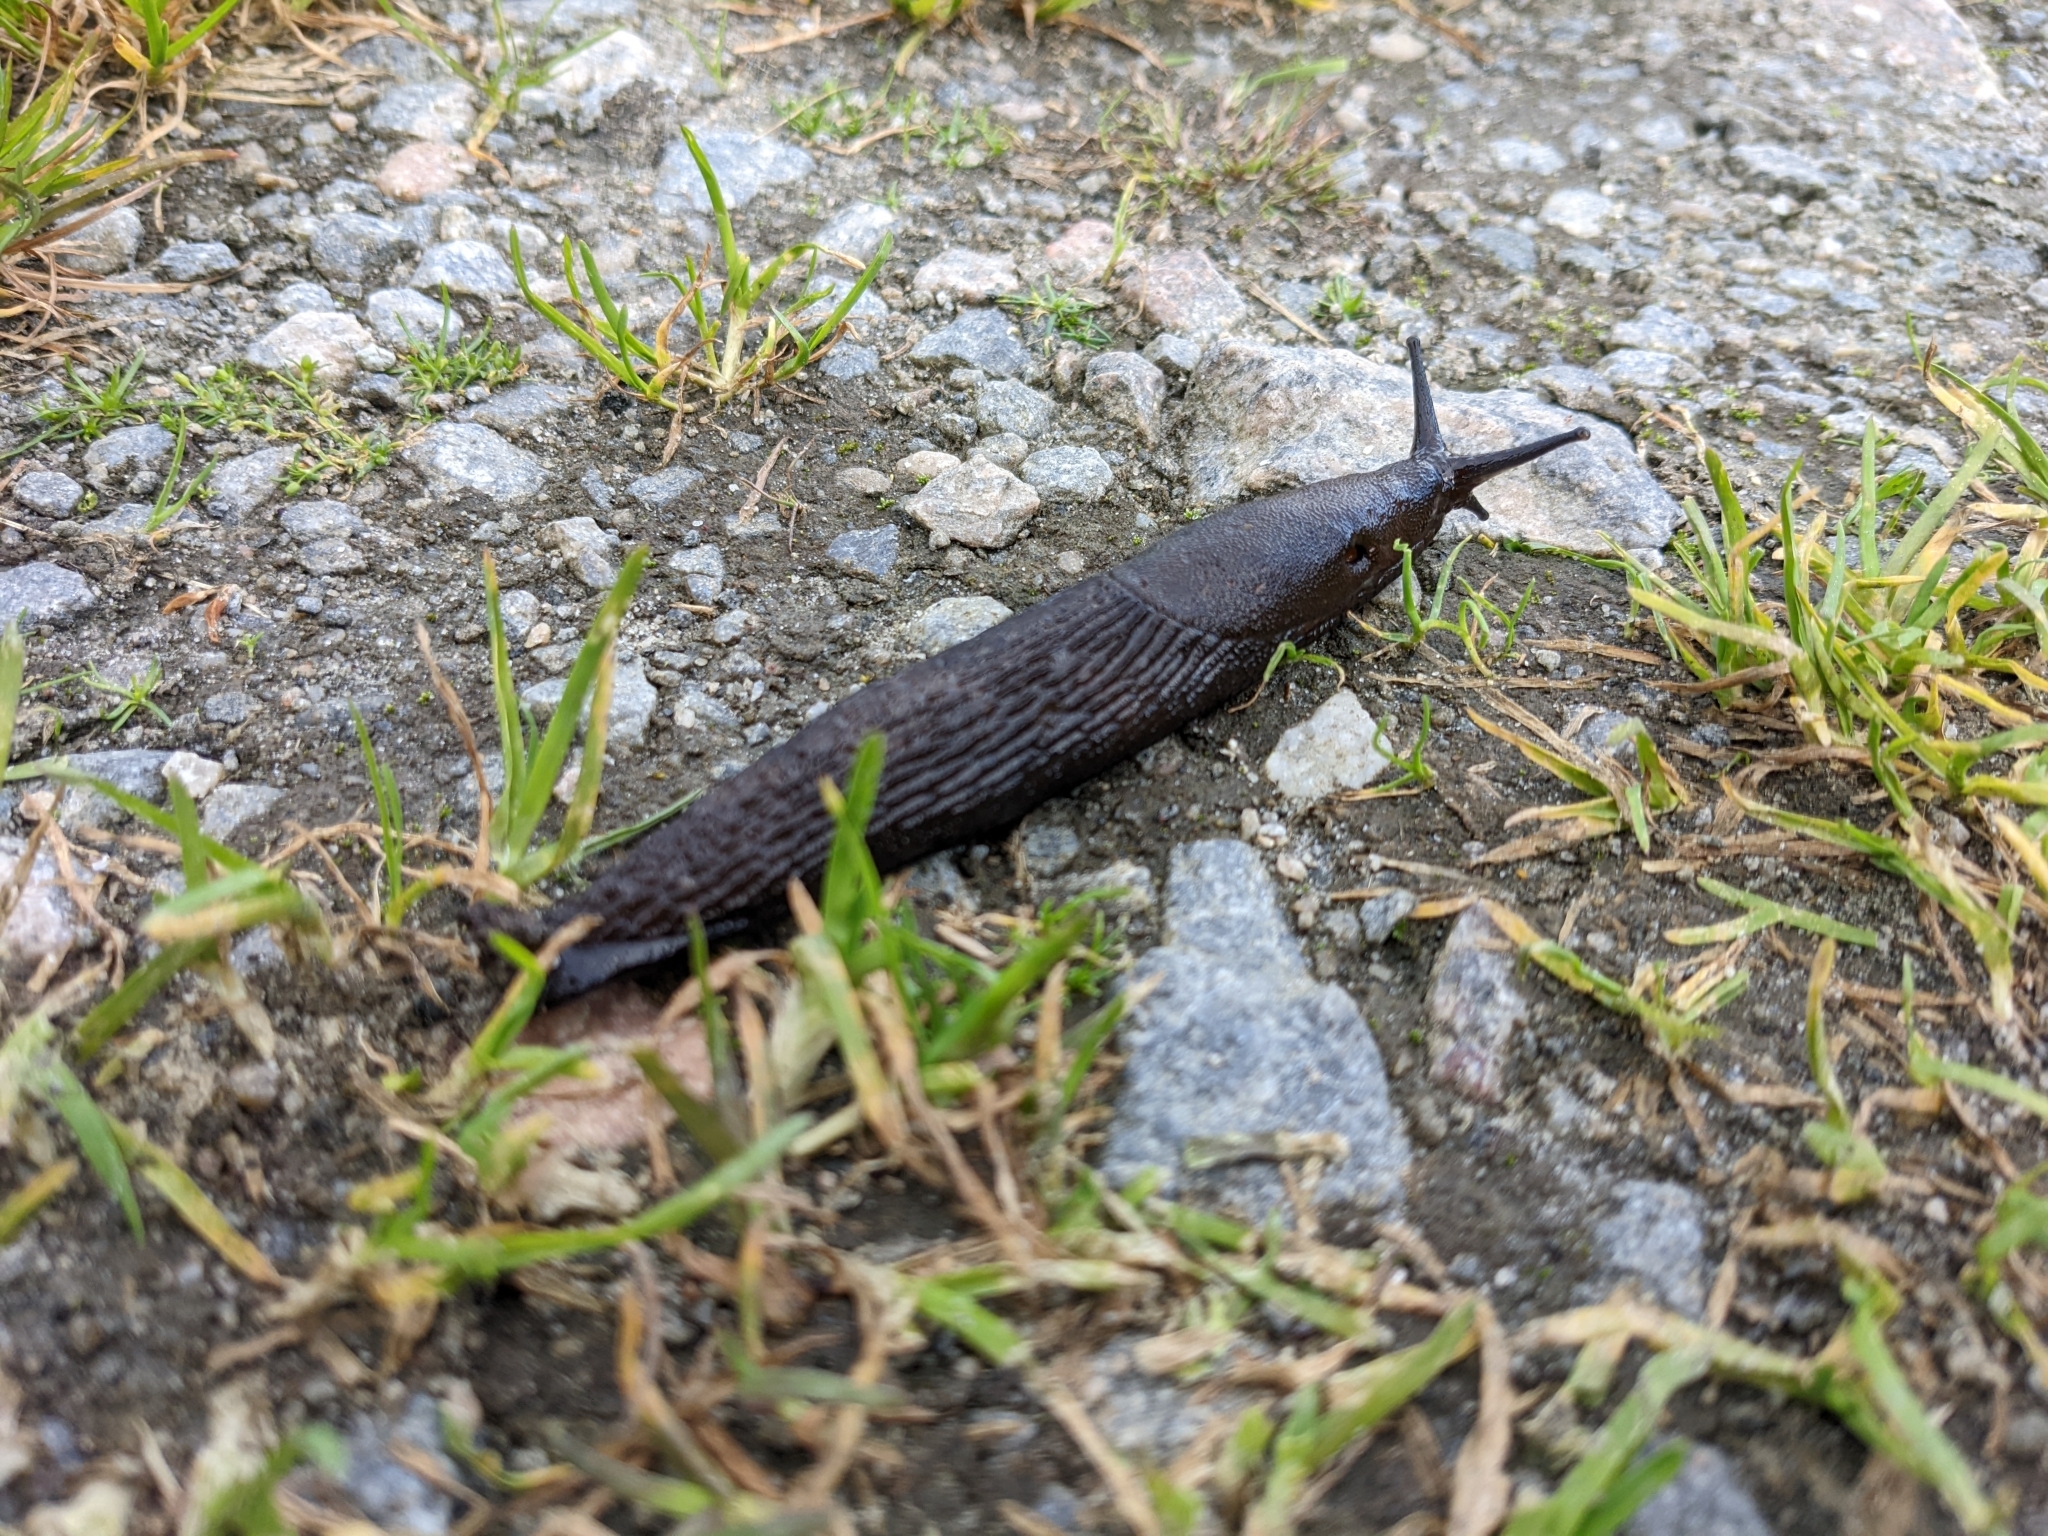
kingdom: Animalia
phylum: Mollusca
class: Gastropoda
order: Stylommatophora
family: Arionidae
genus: Arion
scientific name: Arion ater
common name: Black arion
